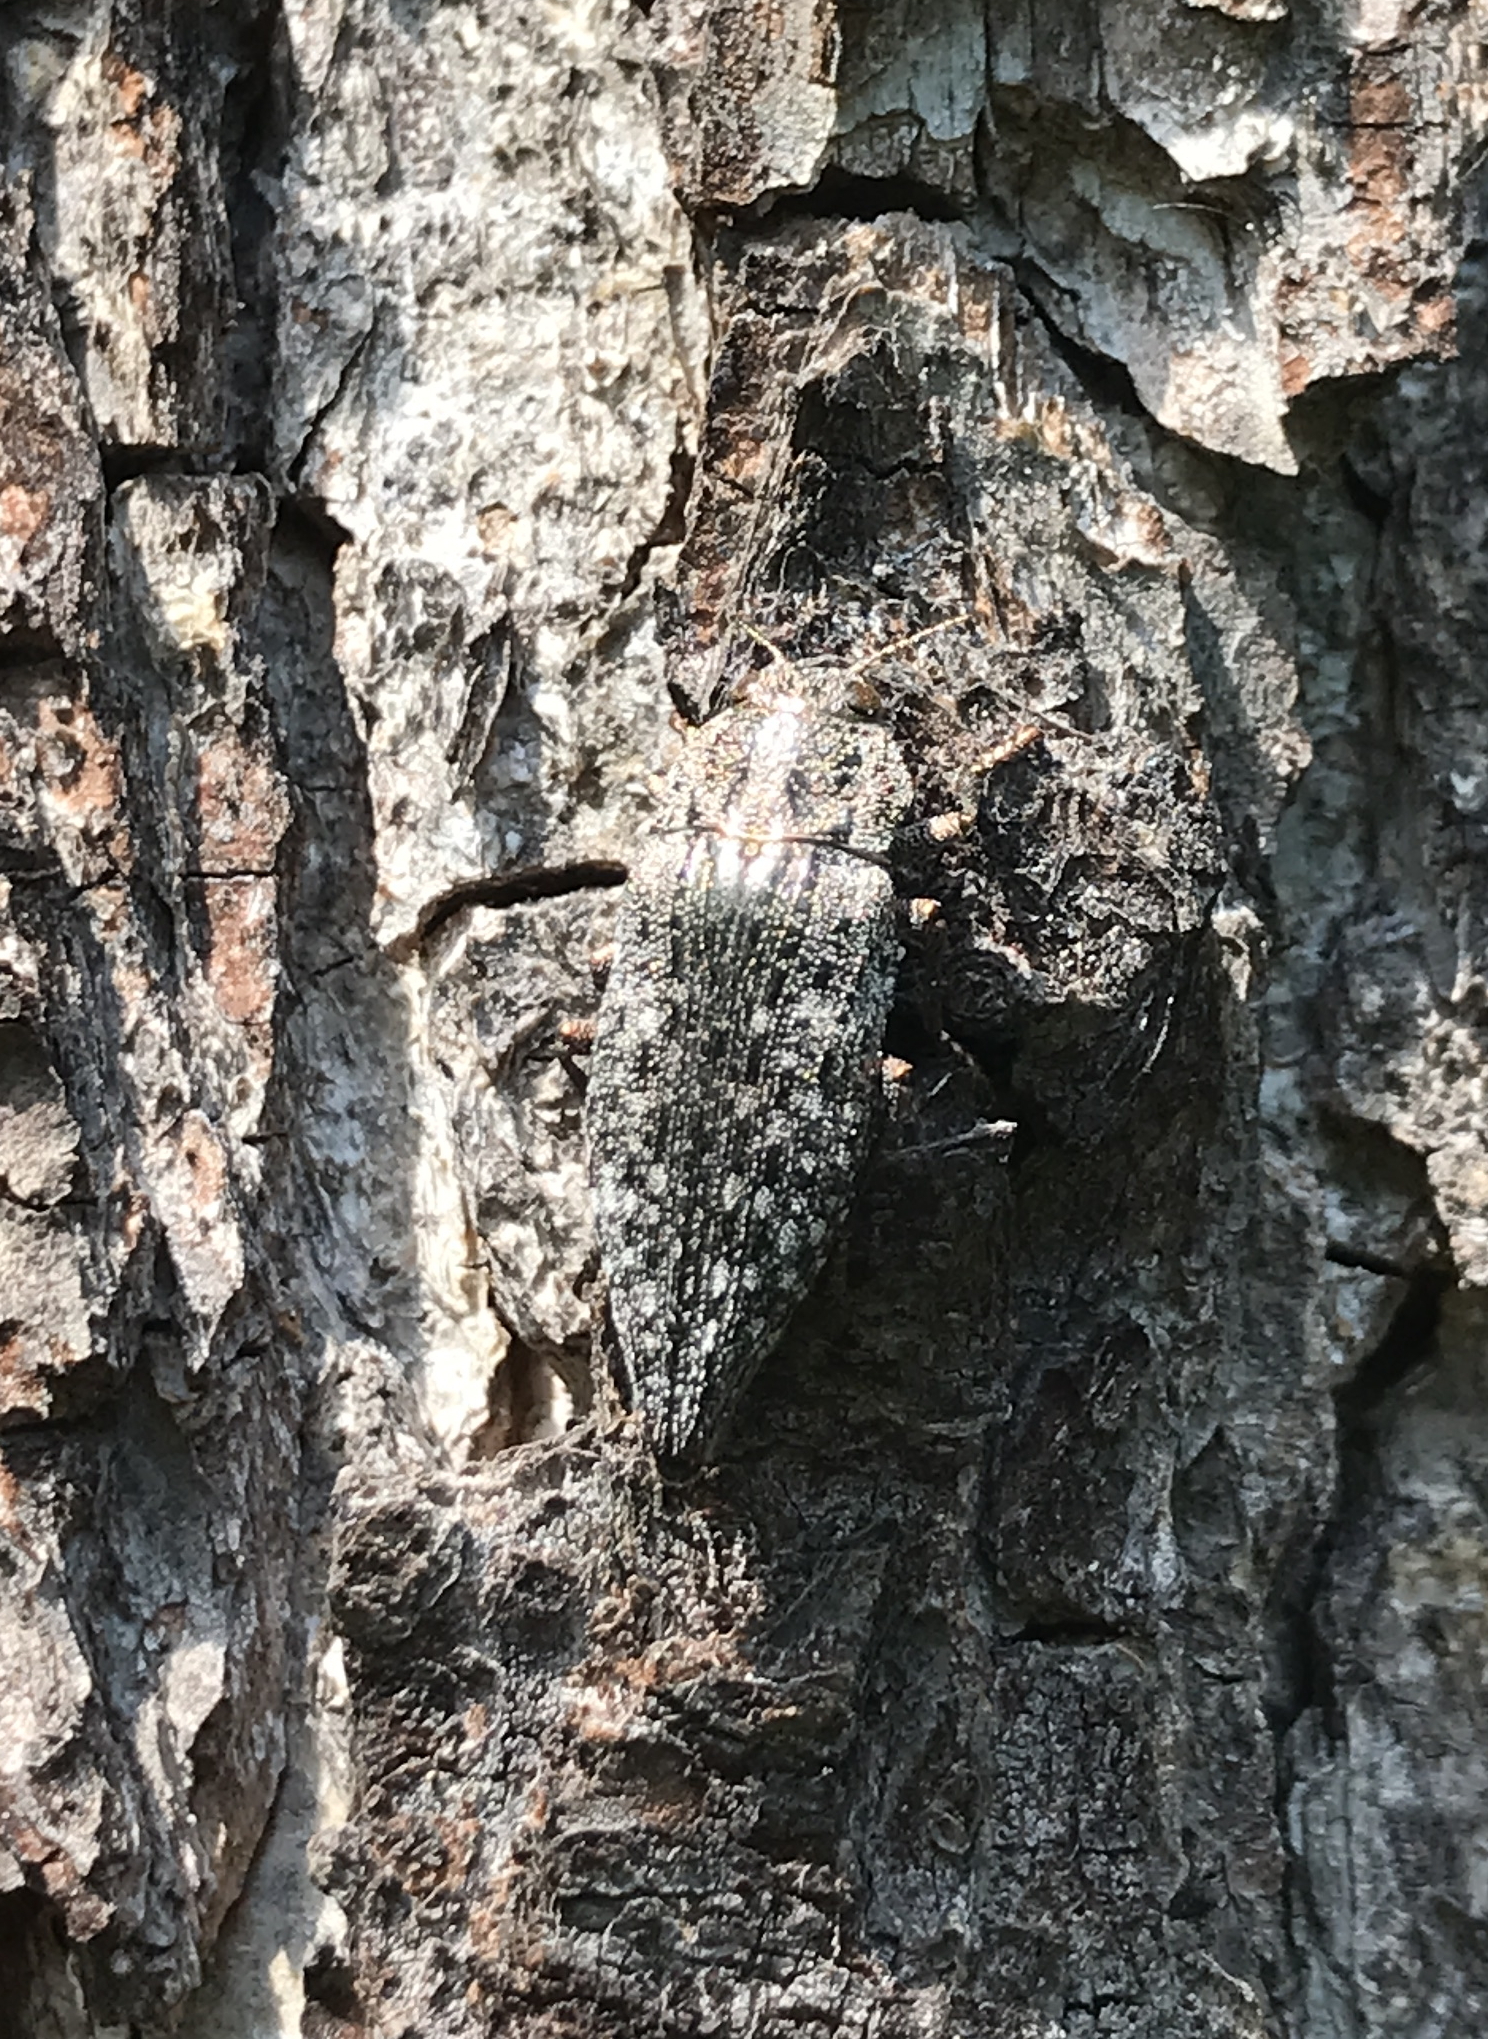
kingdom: Animalia
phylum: Arthropoda
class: Insecta
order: Coleoptera
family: Buprestidae
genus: Dicerca
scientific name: Dicerca alni
